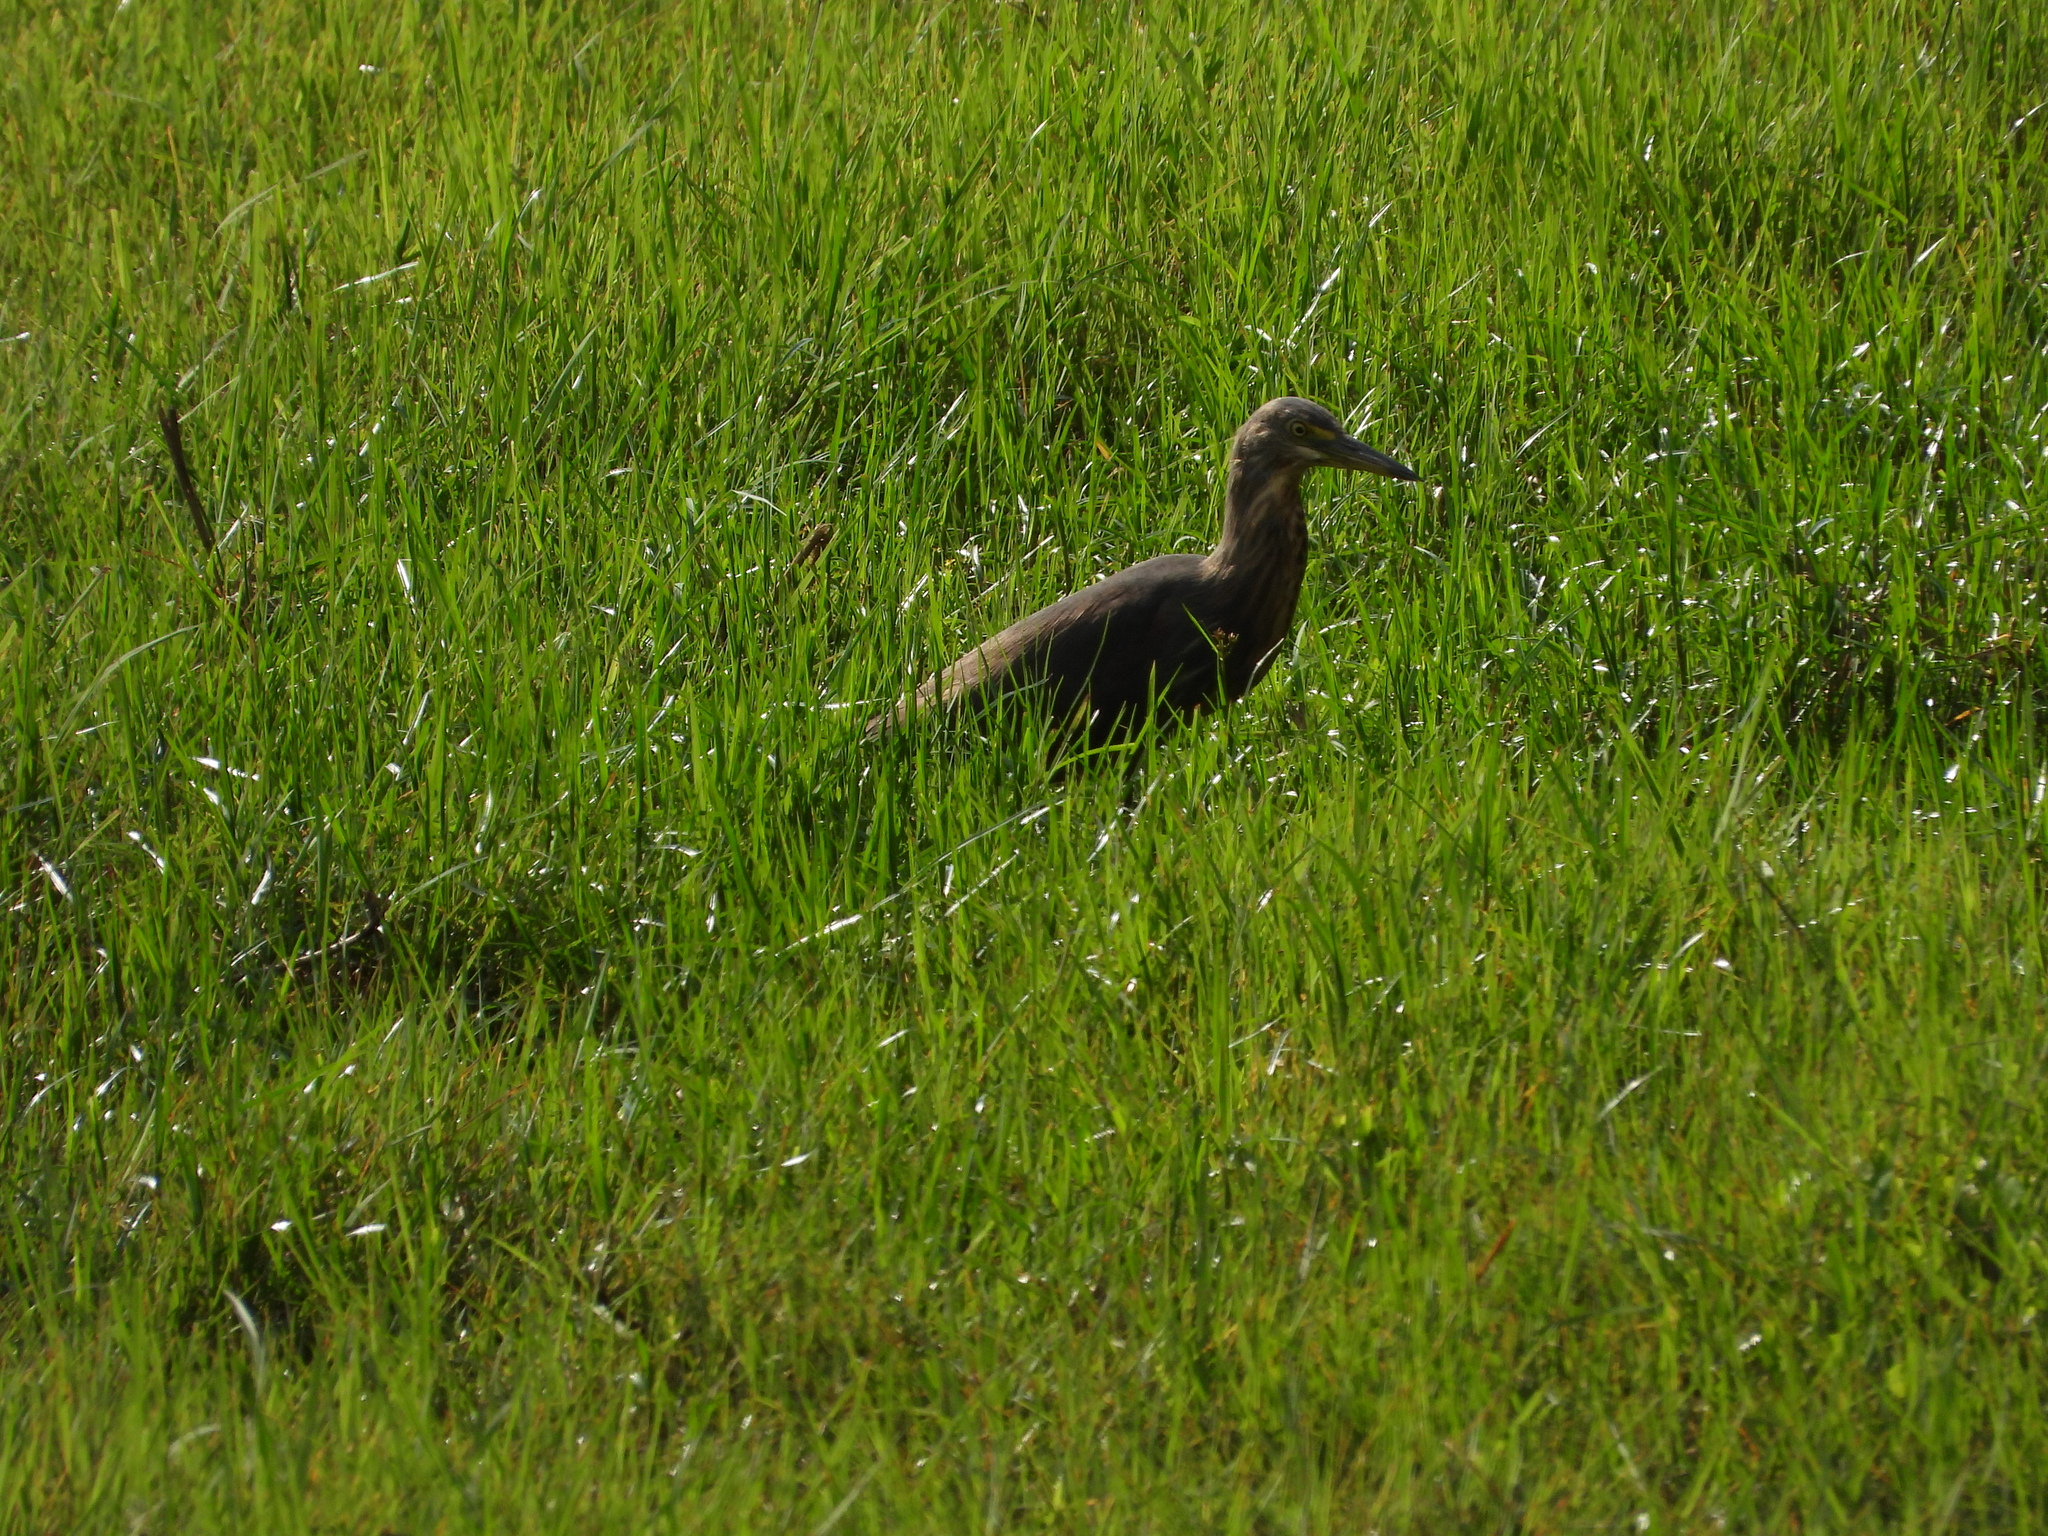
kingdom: Animalia
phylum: Chordata
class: Aves
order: Pelecaniformes
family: Ardeidae
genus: Ardeola
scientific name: Ardeola rufiventris
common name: Rufous-bellied heron
